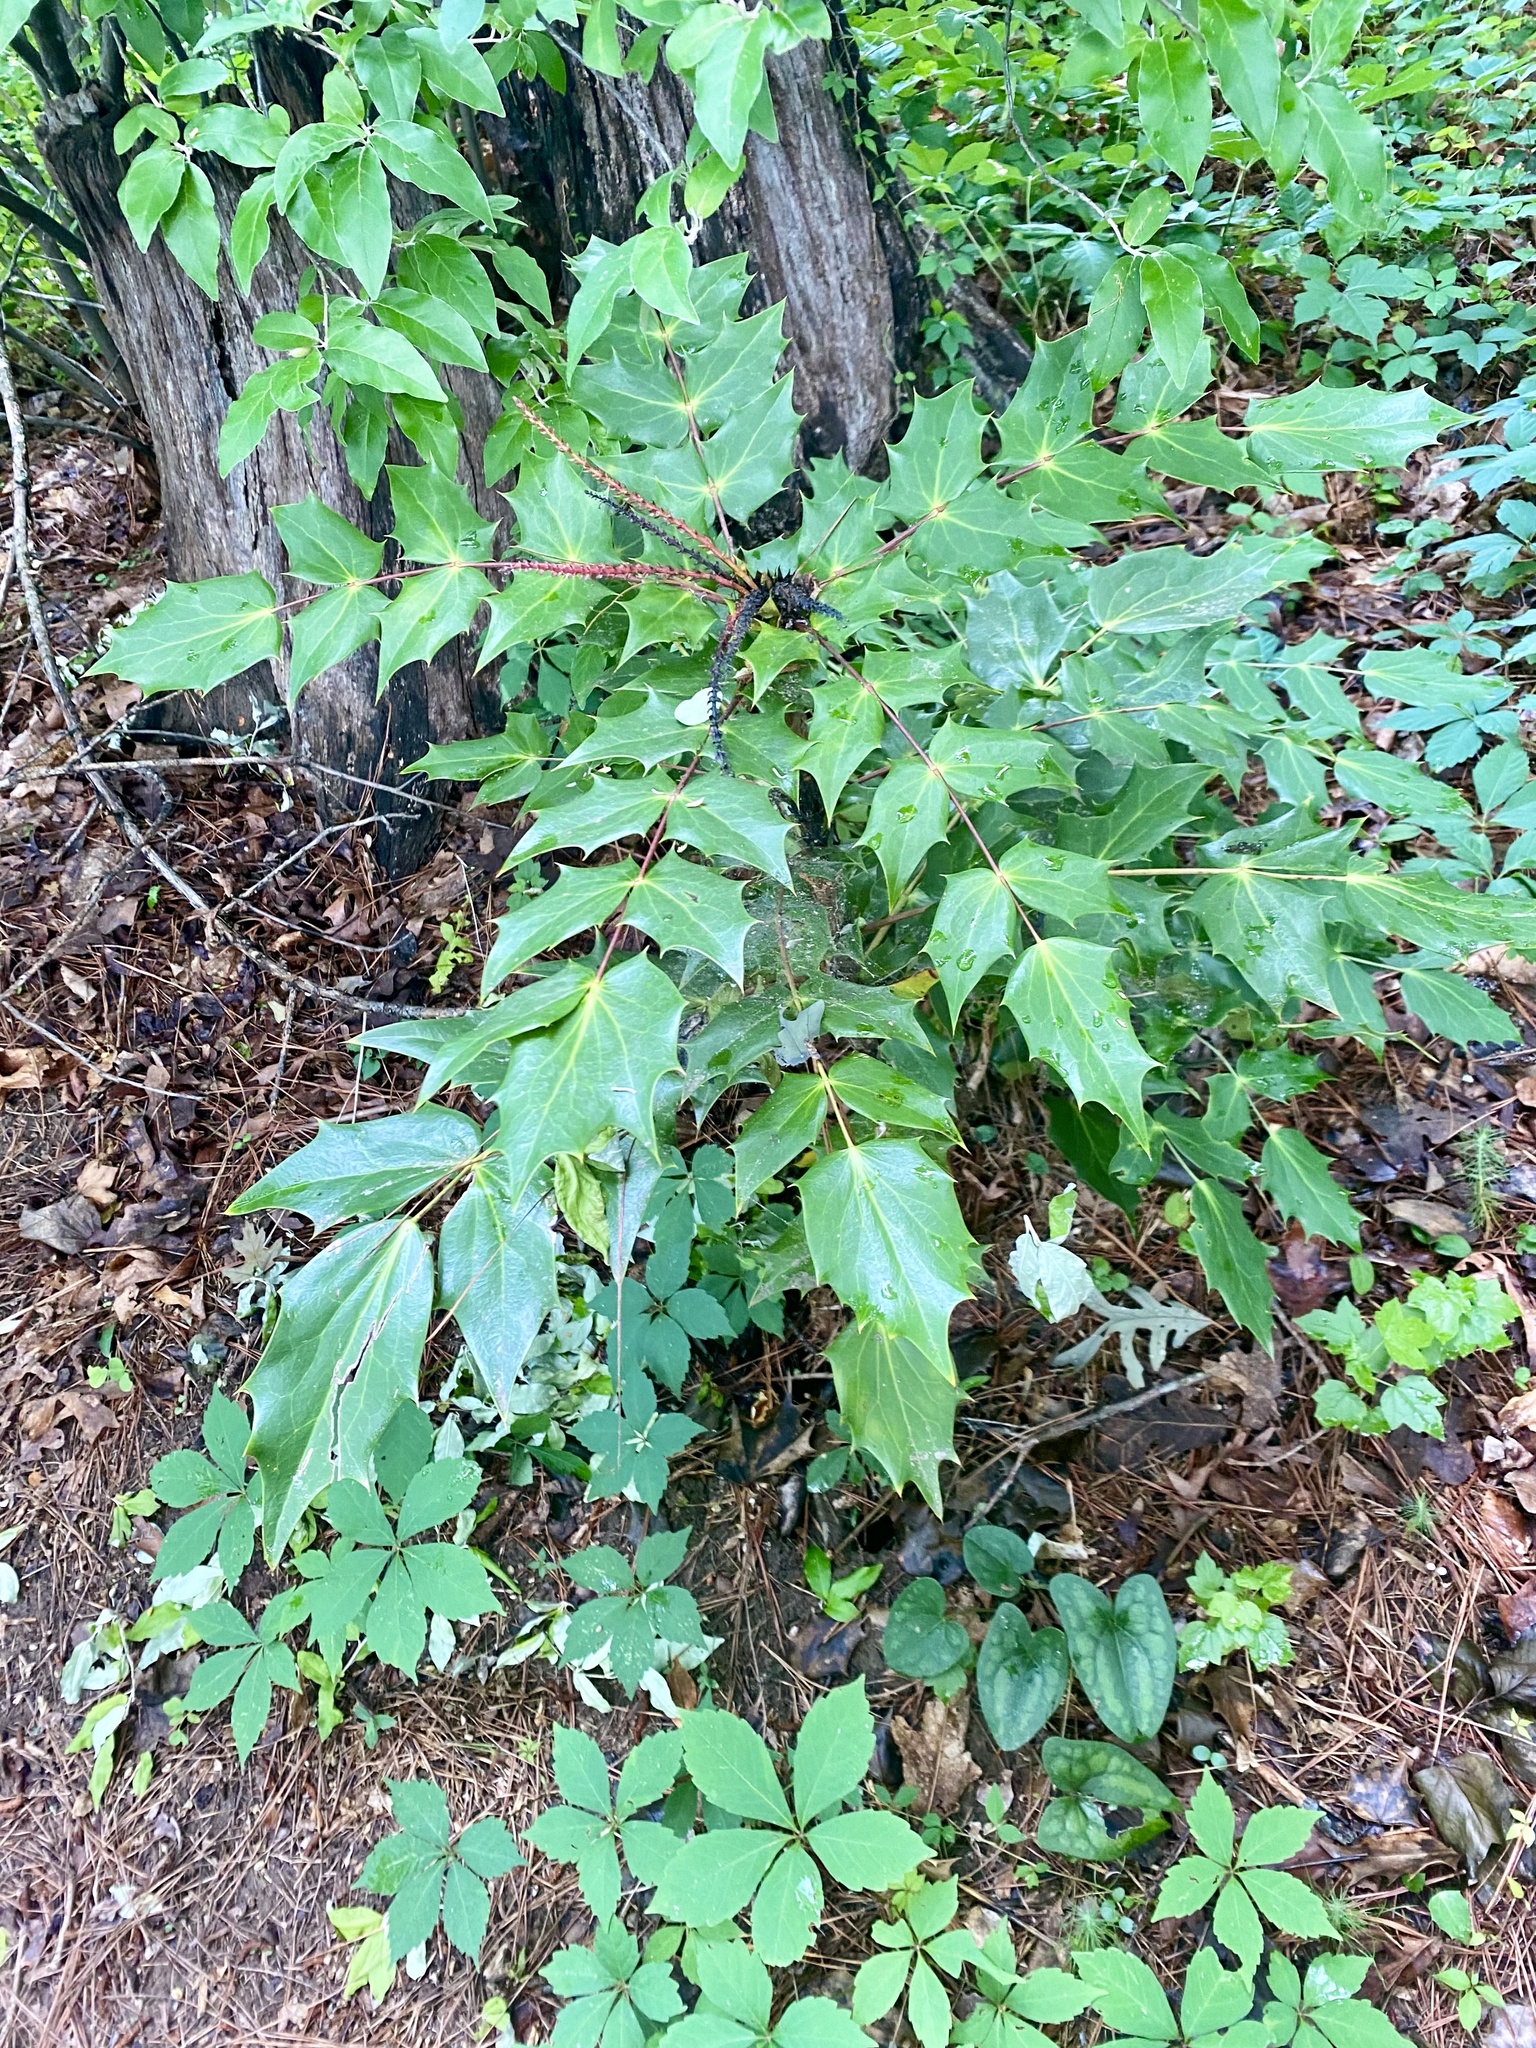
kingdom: Plantae
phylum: Tracheophyta
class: Magnoliopsida
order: Ranunculales
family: Berberidaceae
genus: Mahonia
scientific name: Mahonia bealei
